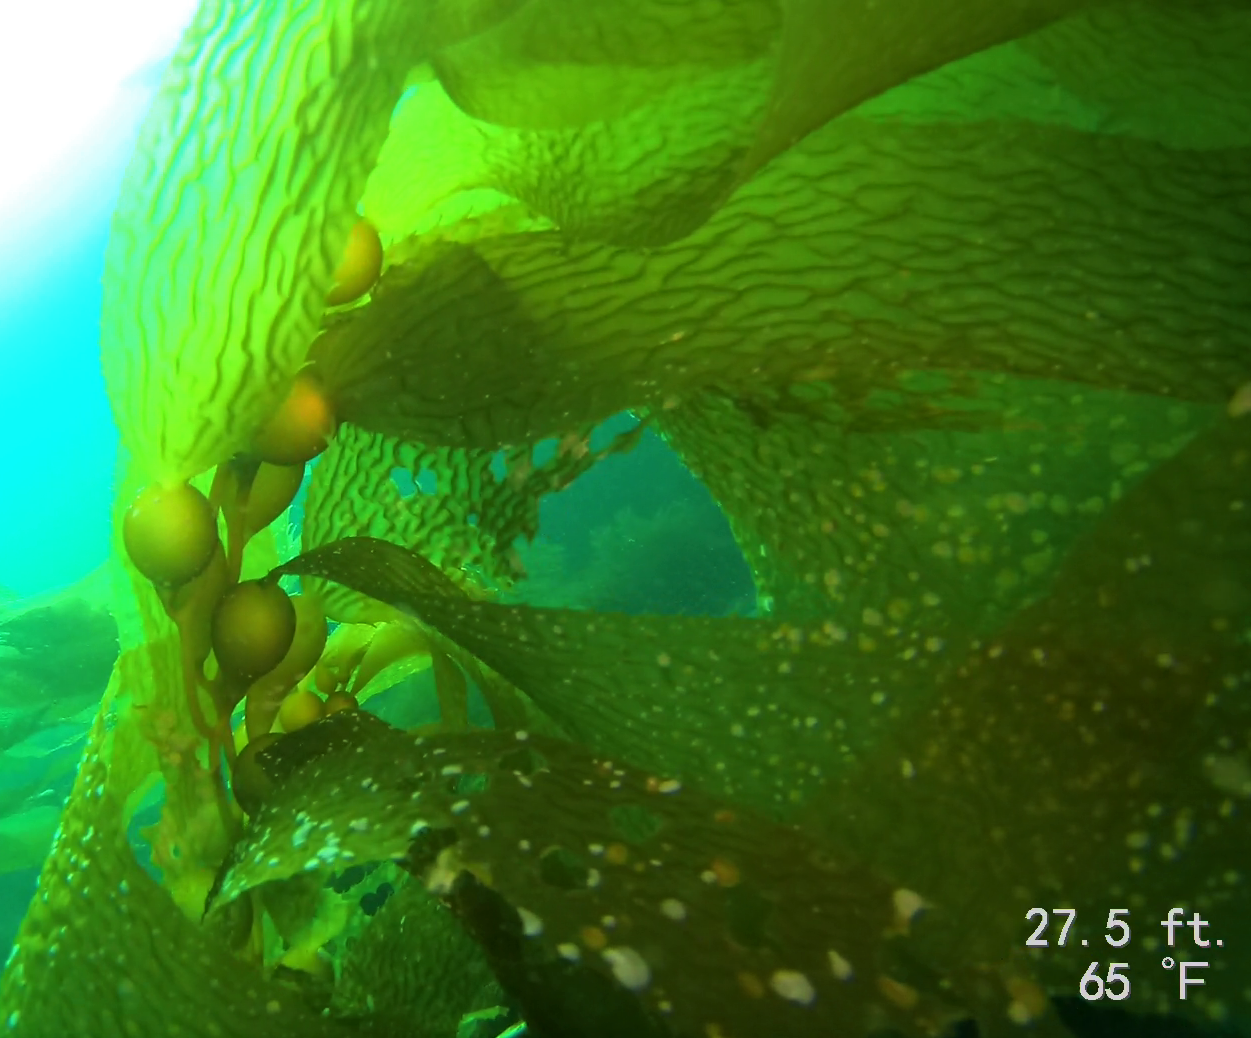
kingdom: Chromista
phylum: Ochrophyta
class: Phaeophyceae
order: Laminariales
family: Laminariaceae
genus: Macrocystis
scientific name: Macrocystis pyrifera
